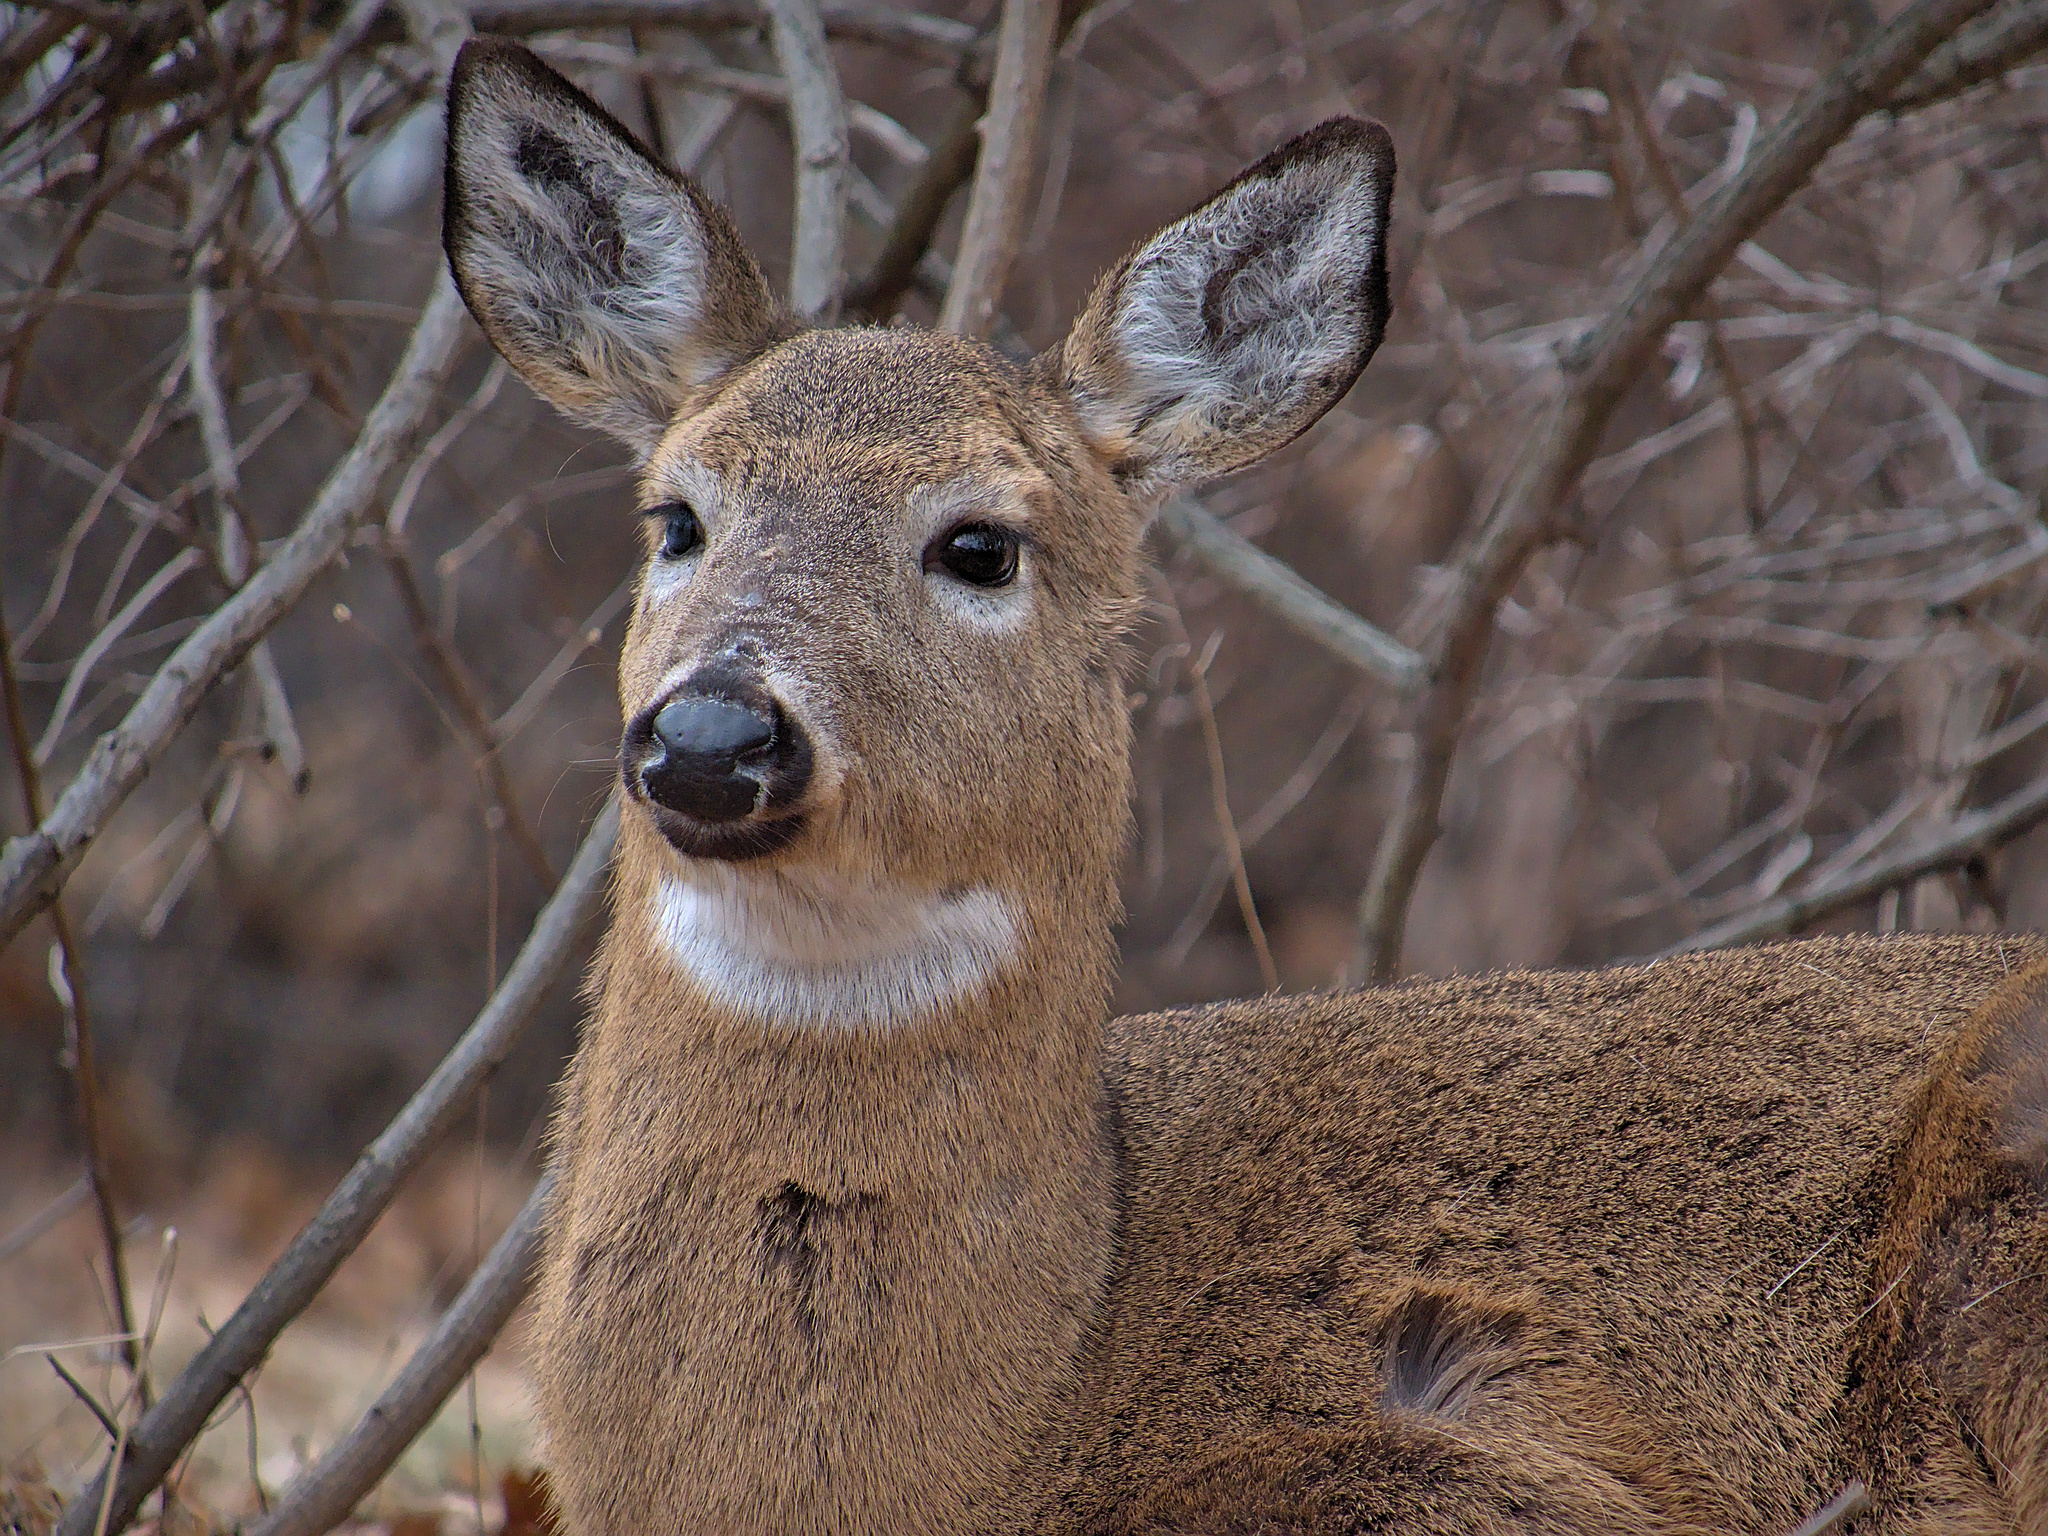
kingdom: Animalia
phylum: Chordata
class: Mammalia
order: Artiodactyla
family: Cervidae
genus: Odocoileus
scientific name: Odocoileus virginianus
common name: White-tailed deer
